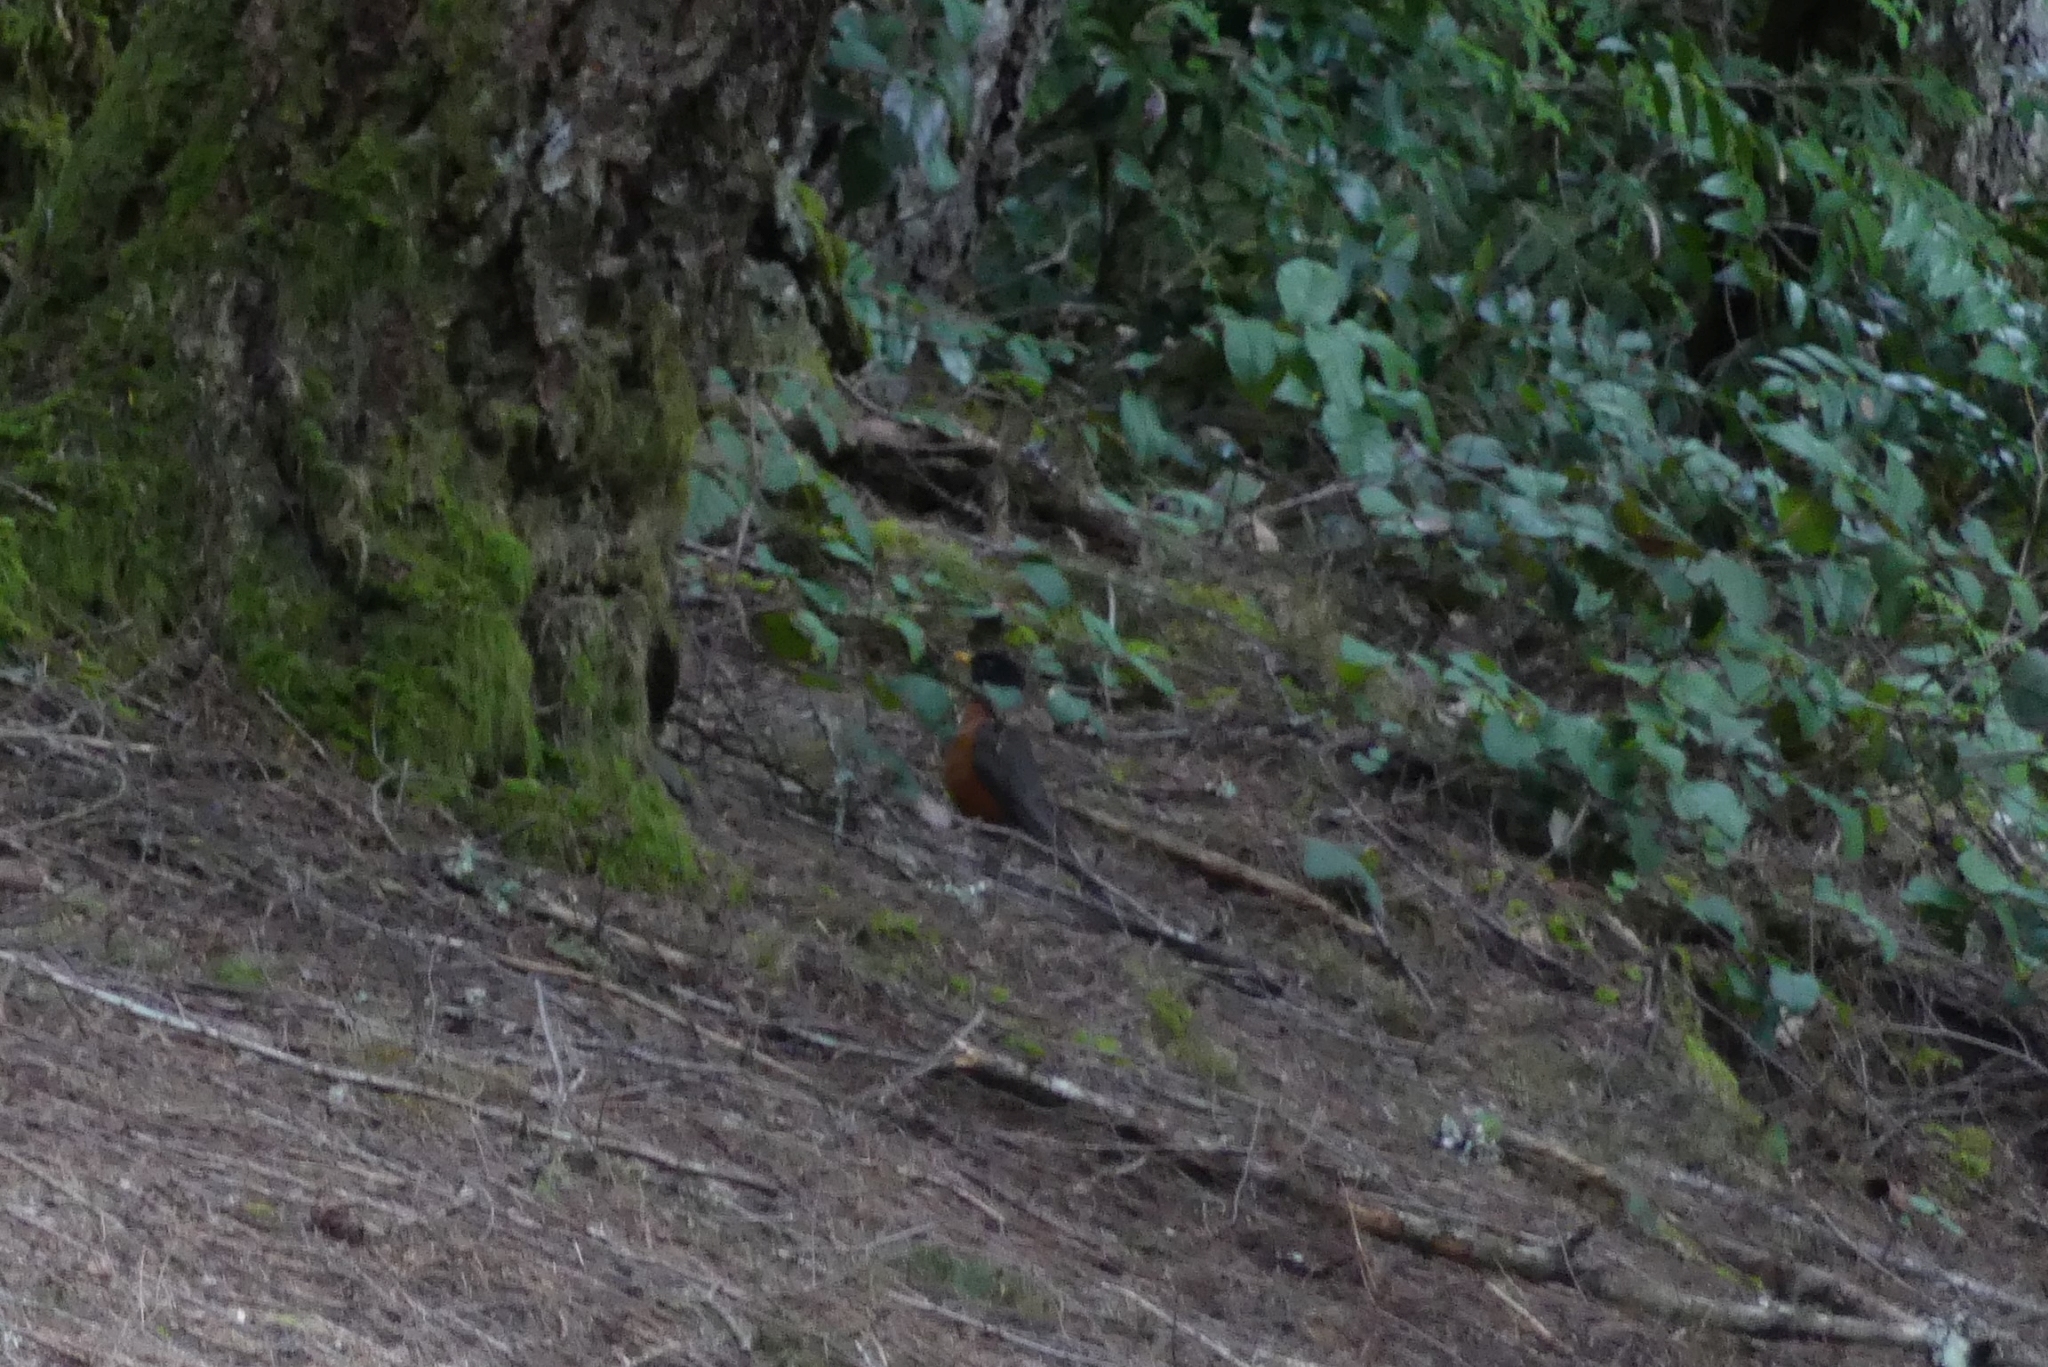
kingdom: Animalia
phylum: Chordata
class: Aves
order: Passeriformes
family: Turdidae
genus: Turdus
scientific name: Turdus migratorius
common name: American robin
